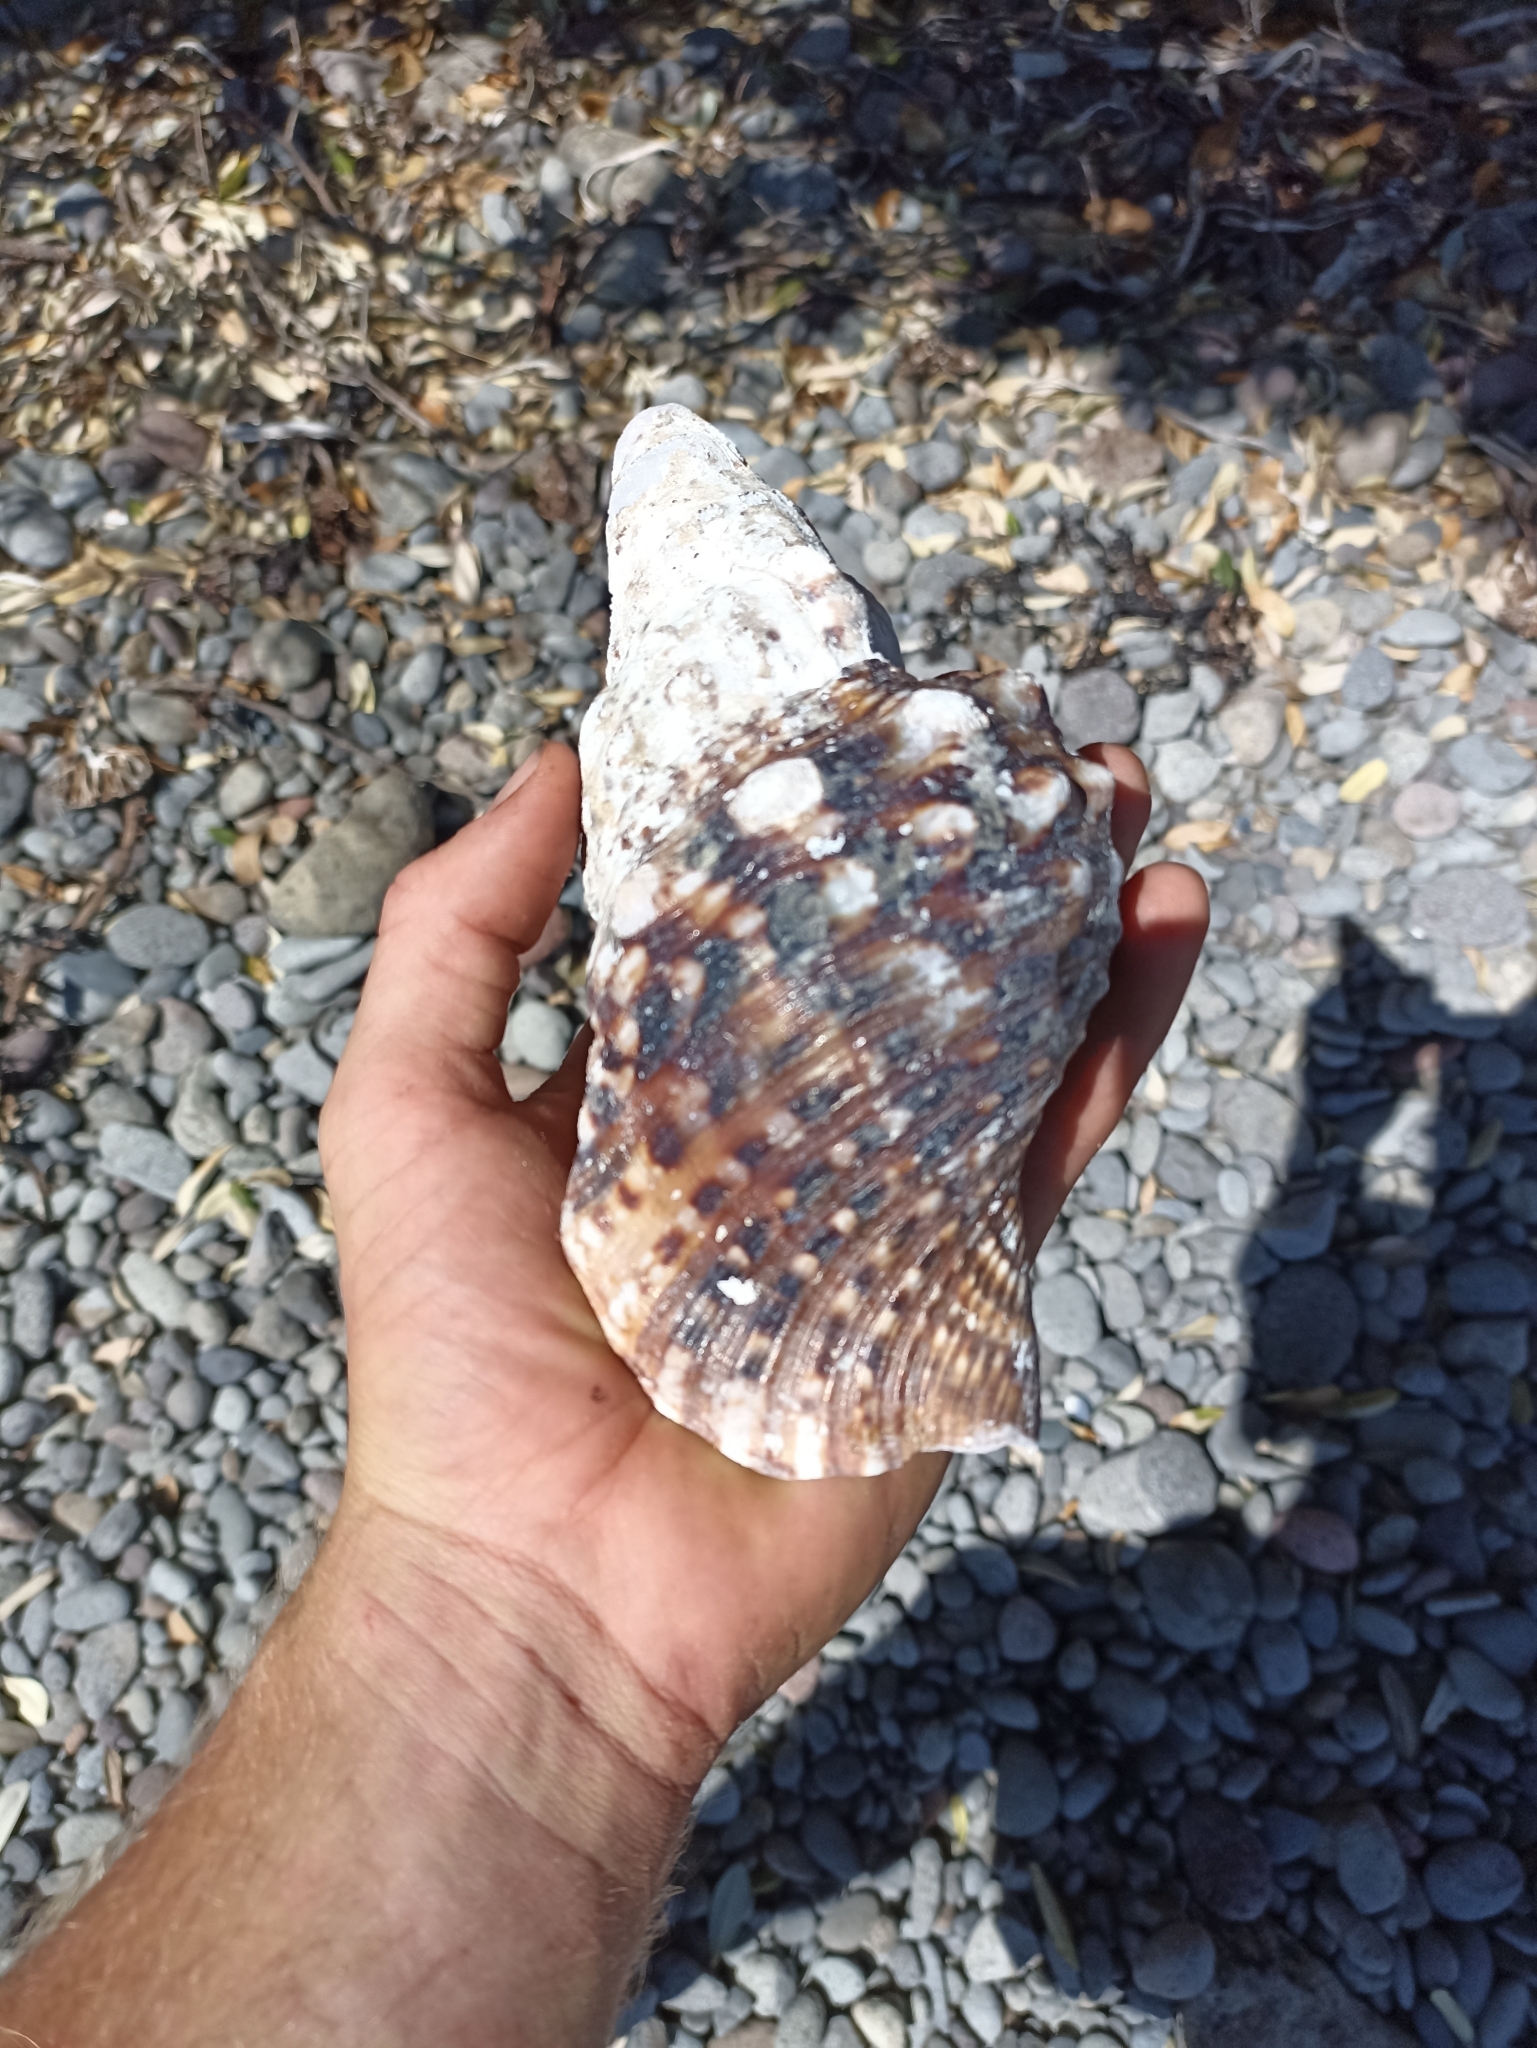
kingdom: Animalia
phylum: Mollusca
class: Gastropoda
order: Littorinimorpha
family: Charoniidae
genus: Charonia
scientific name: Charonia lampas
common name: Knobbed triton
